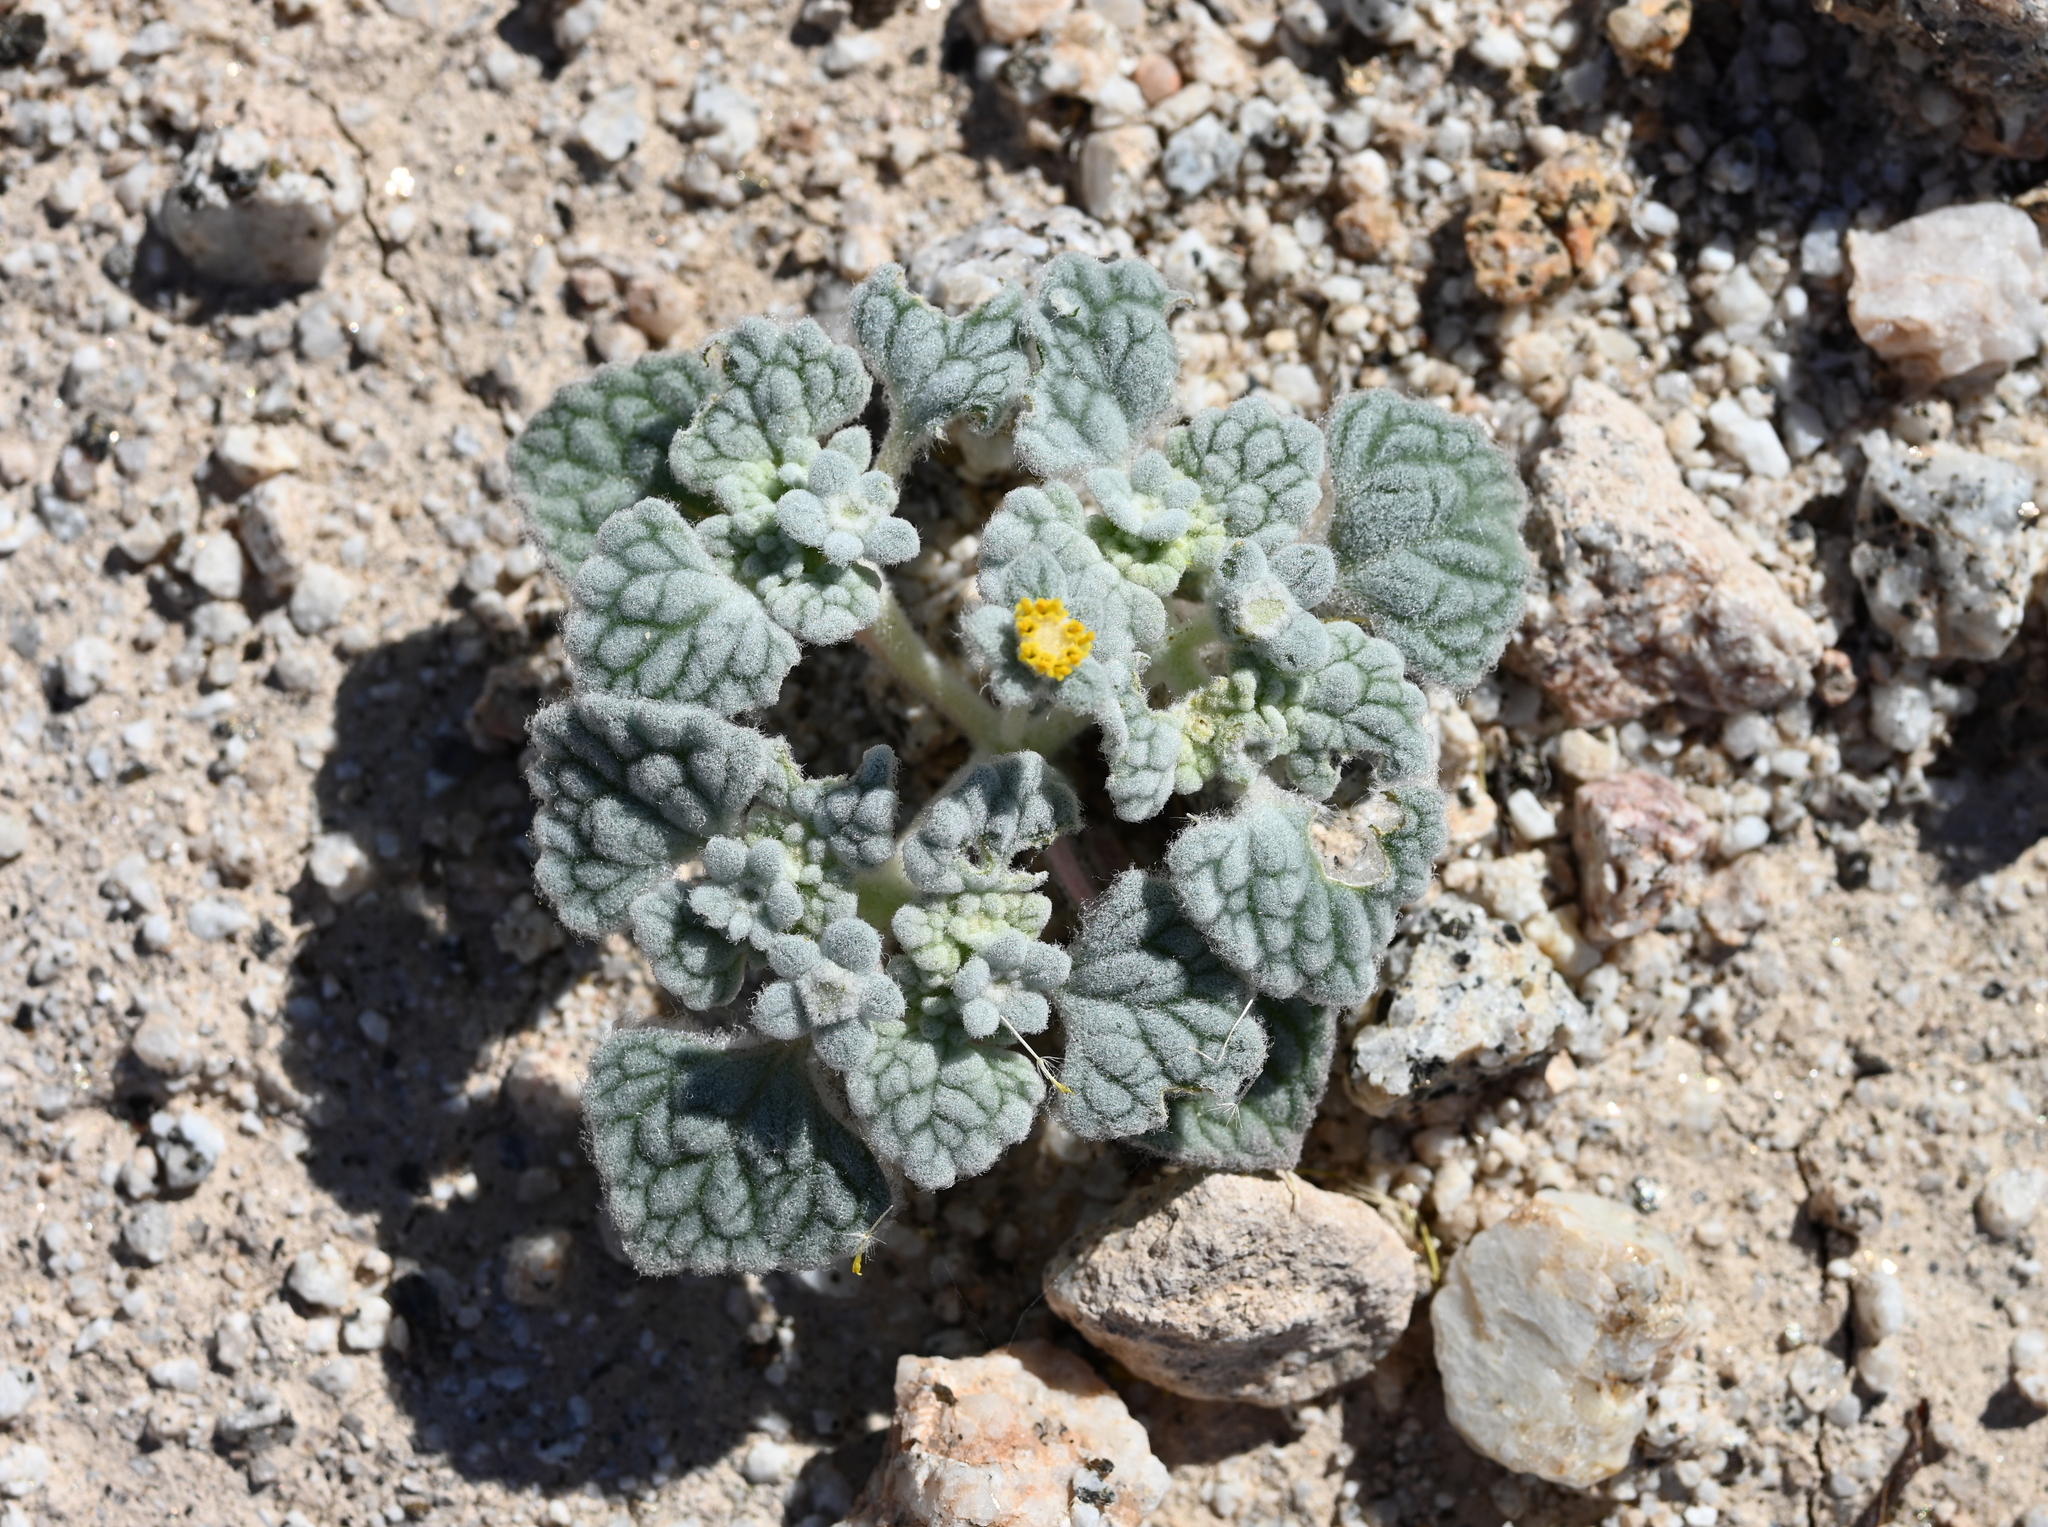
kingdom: Plantae
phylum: Tracheophyta
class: Magnoliopsida
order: Asterales
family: Asteraceae
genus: Psathyrotes
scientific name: Psathyrotes ramosissima
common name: Turtleback
